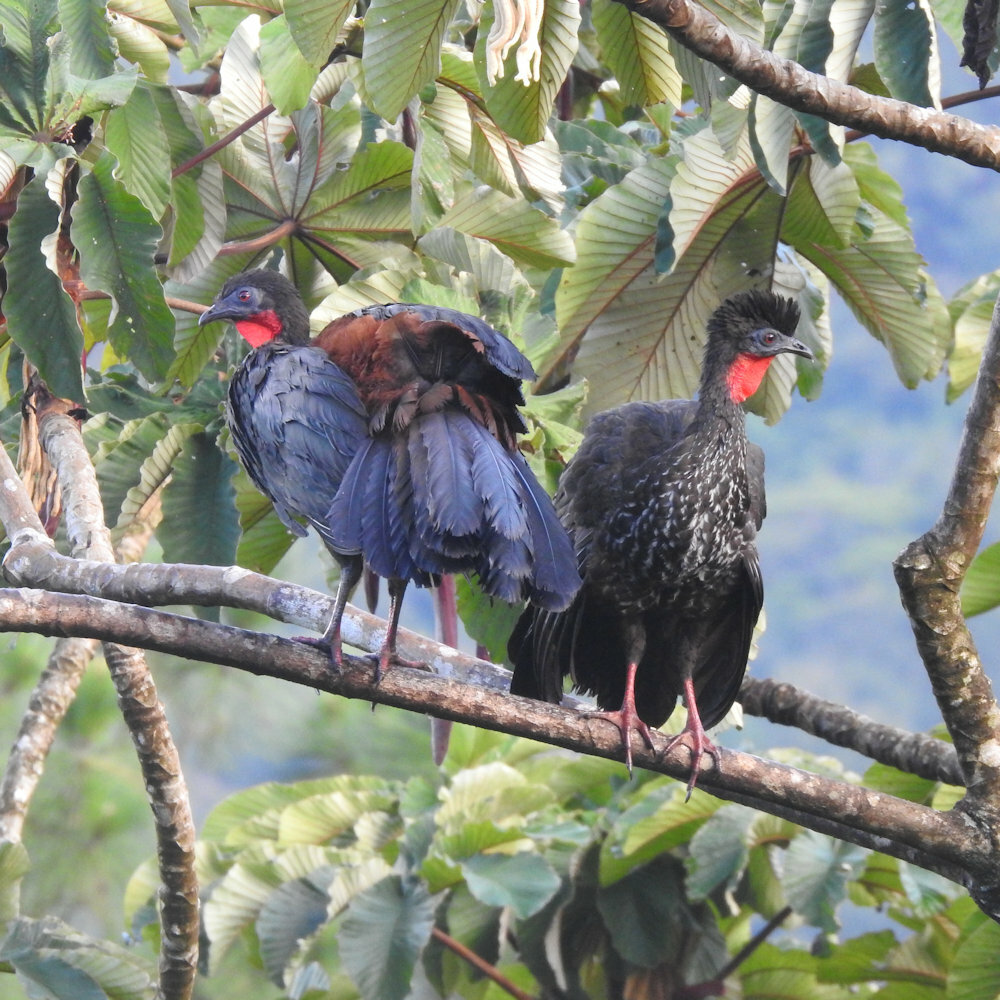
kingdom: Animalia
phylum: Chordata
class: Aves
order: Galliformes
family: Cracidae
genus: Penelope
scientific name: Penelope purpurascens
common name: Crested guan
